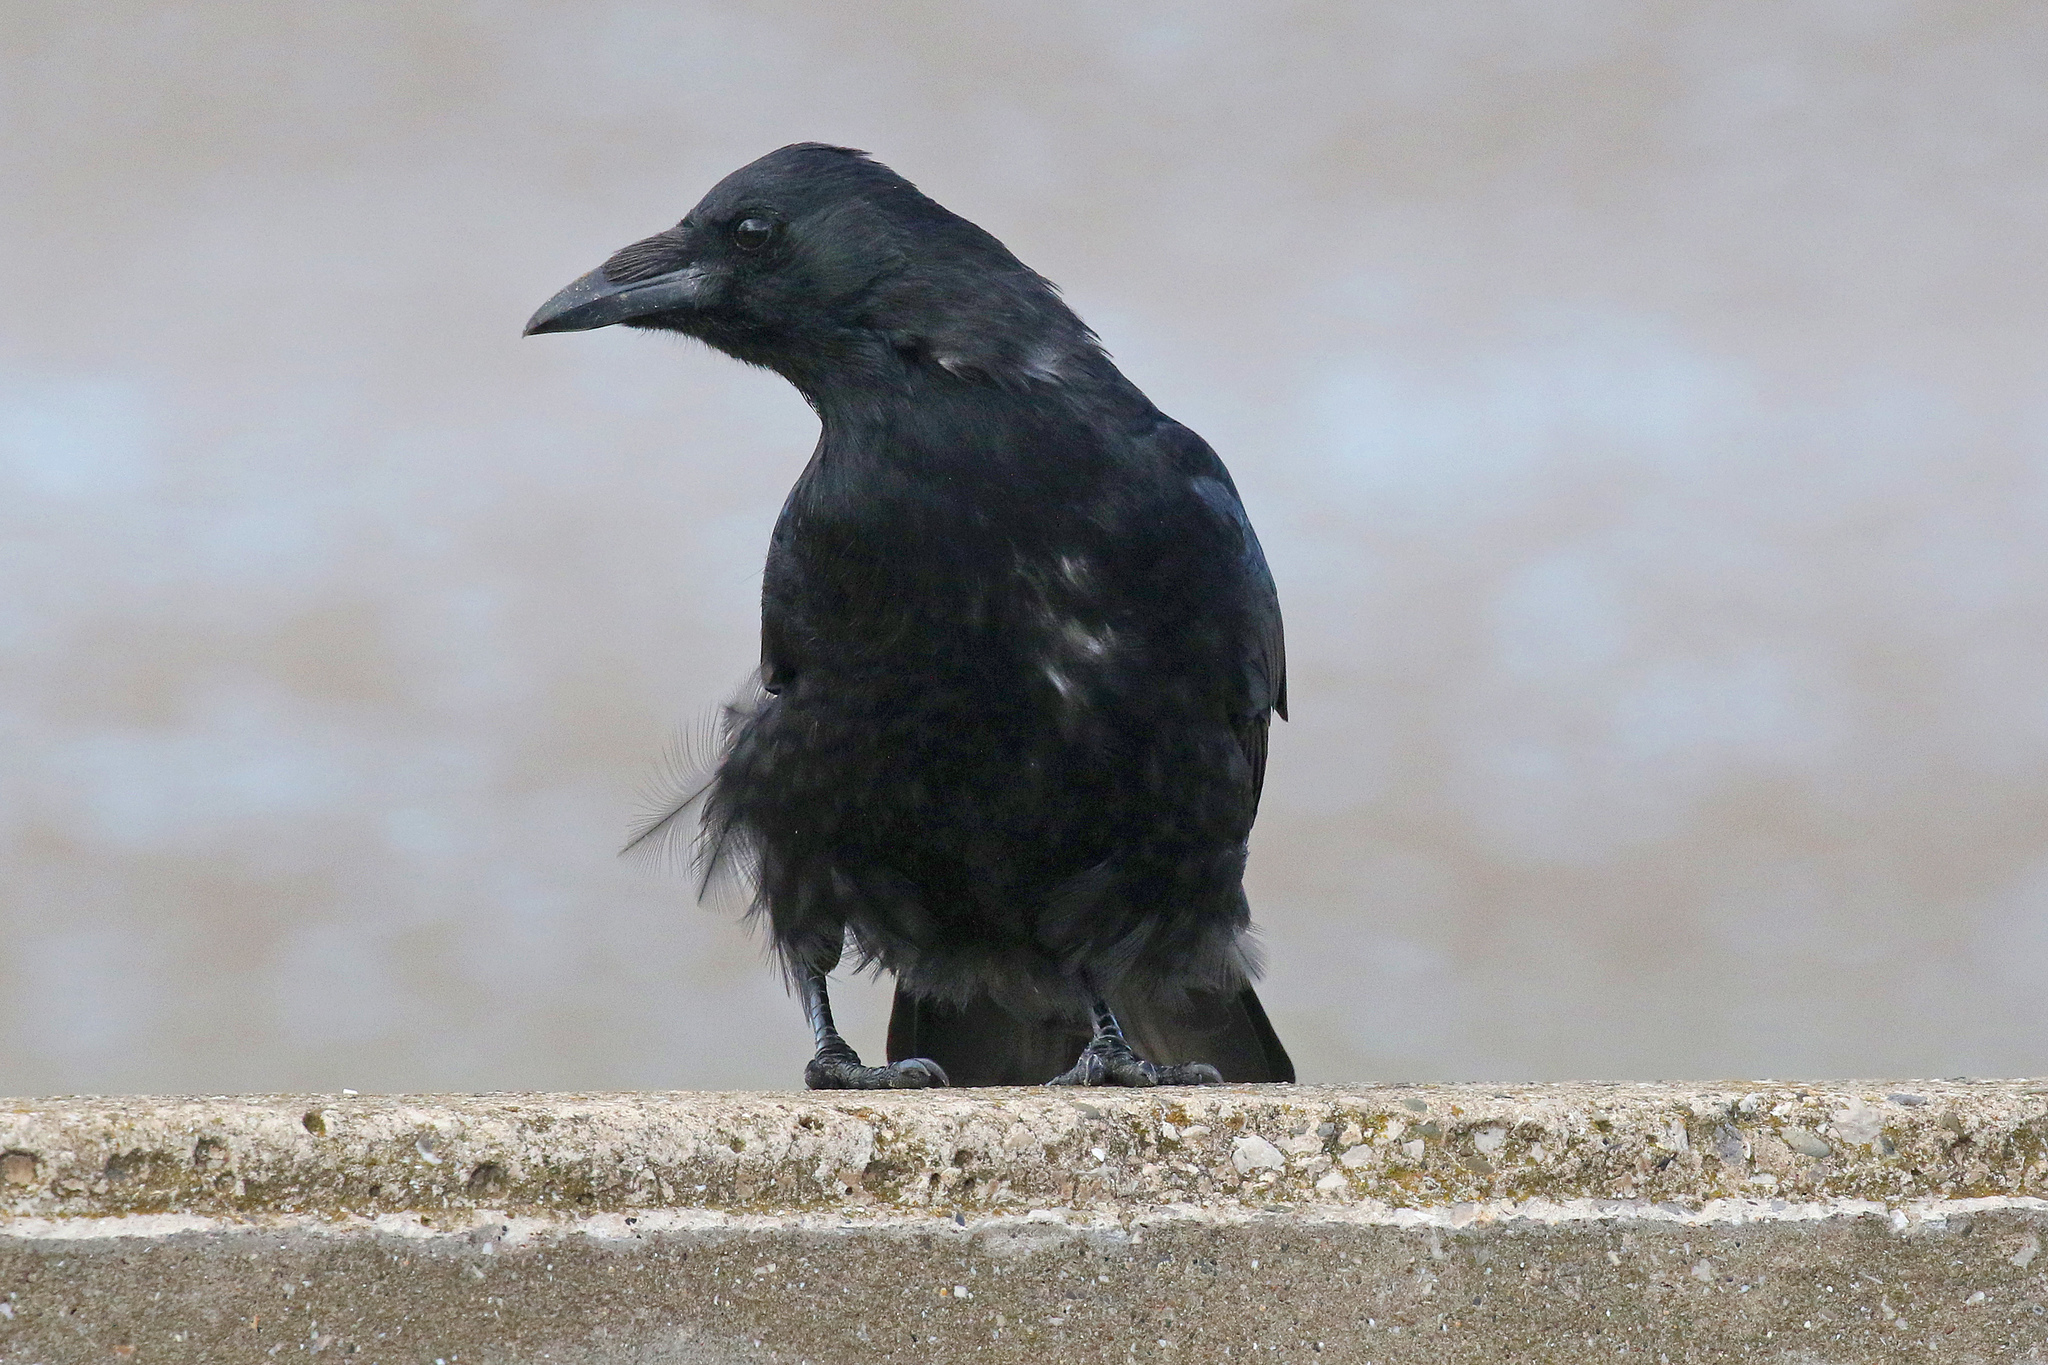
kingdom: Animalia
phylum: Chordata
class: Aves
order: Passeriformes
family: Corvidae
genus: Corvus
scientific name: Corvus corone
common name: Carrion crow
